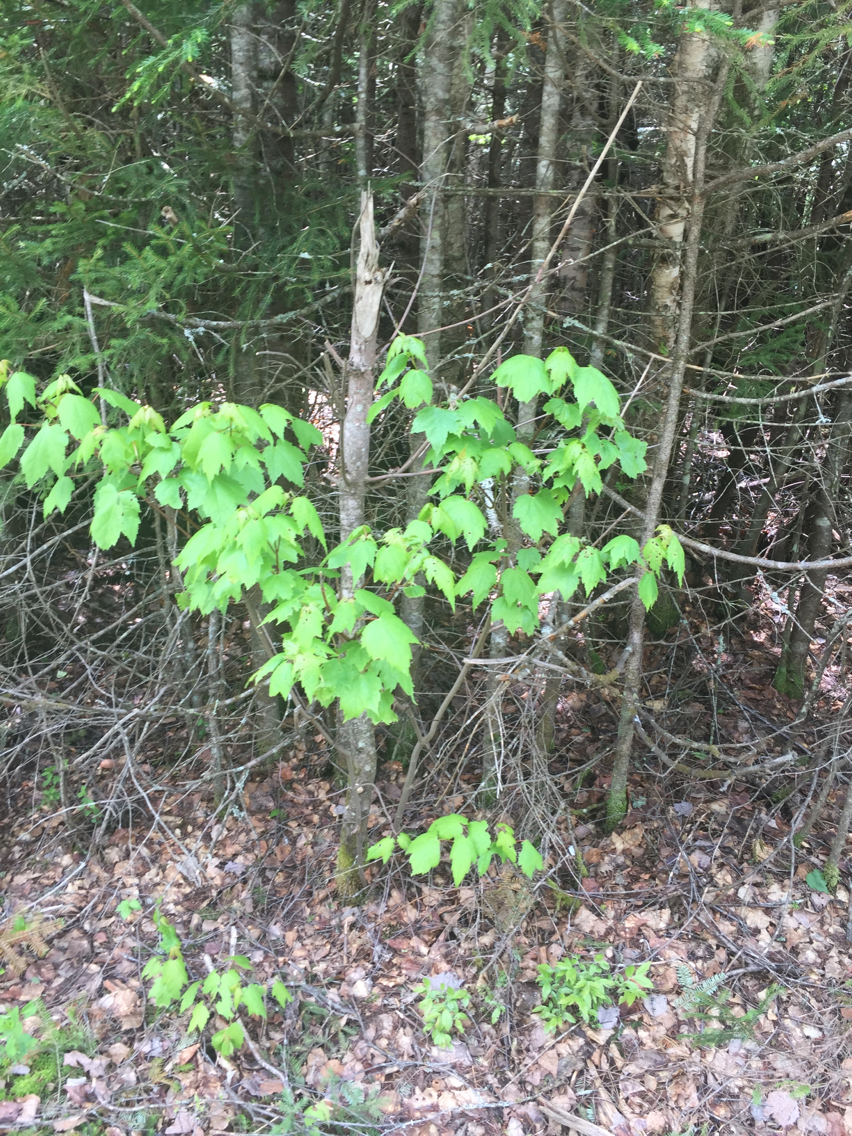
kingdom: Plantae
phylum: Tracheophyta
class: Magnoliopsida
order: Sapindales
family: Sapindaceae
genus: Acer
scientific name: Acer rubrum
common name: Red maple
